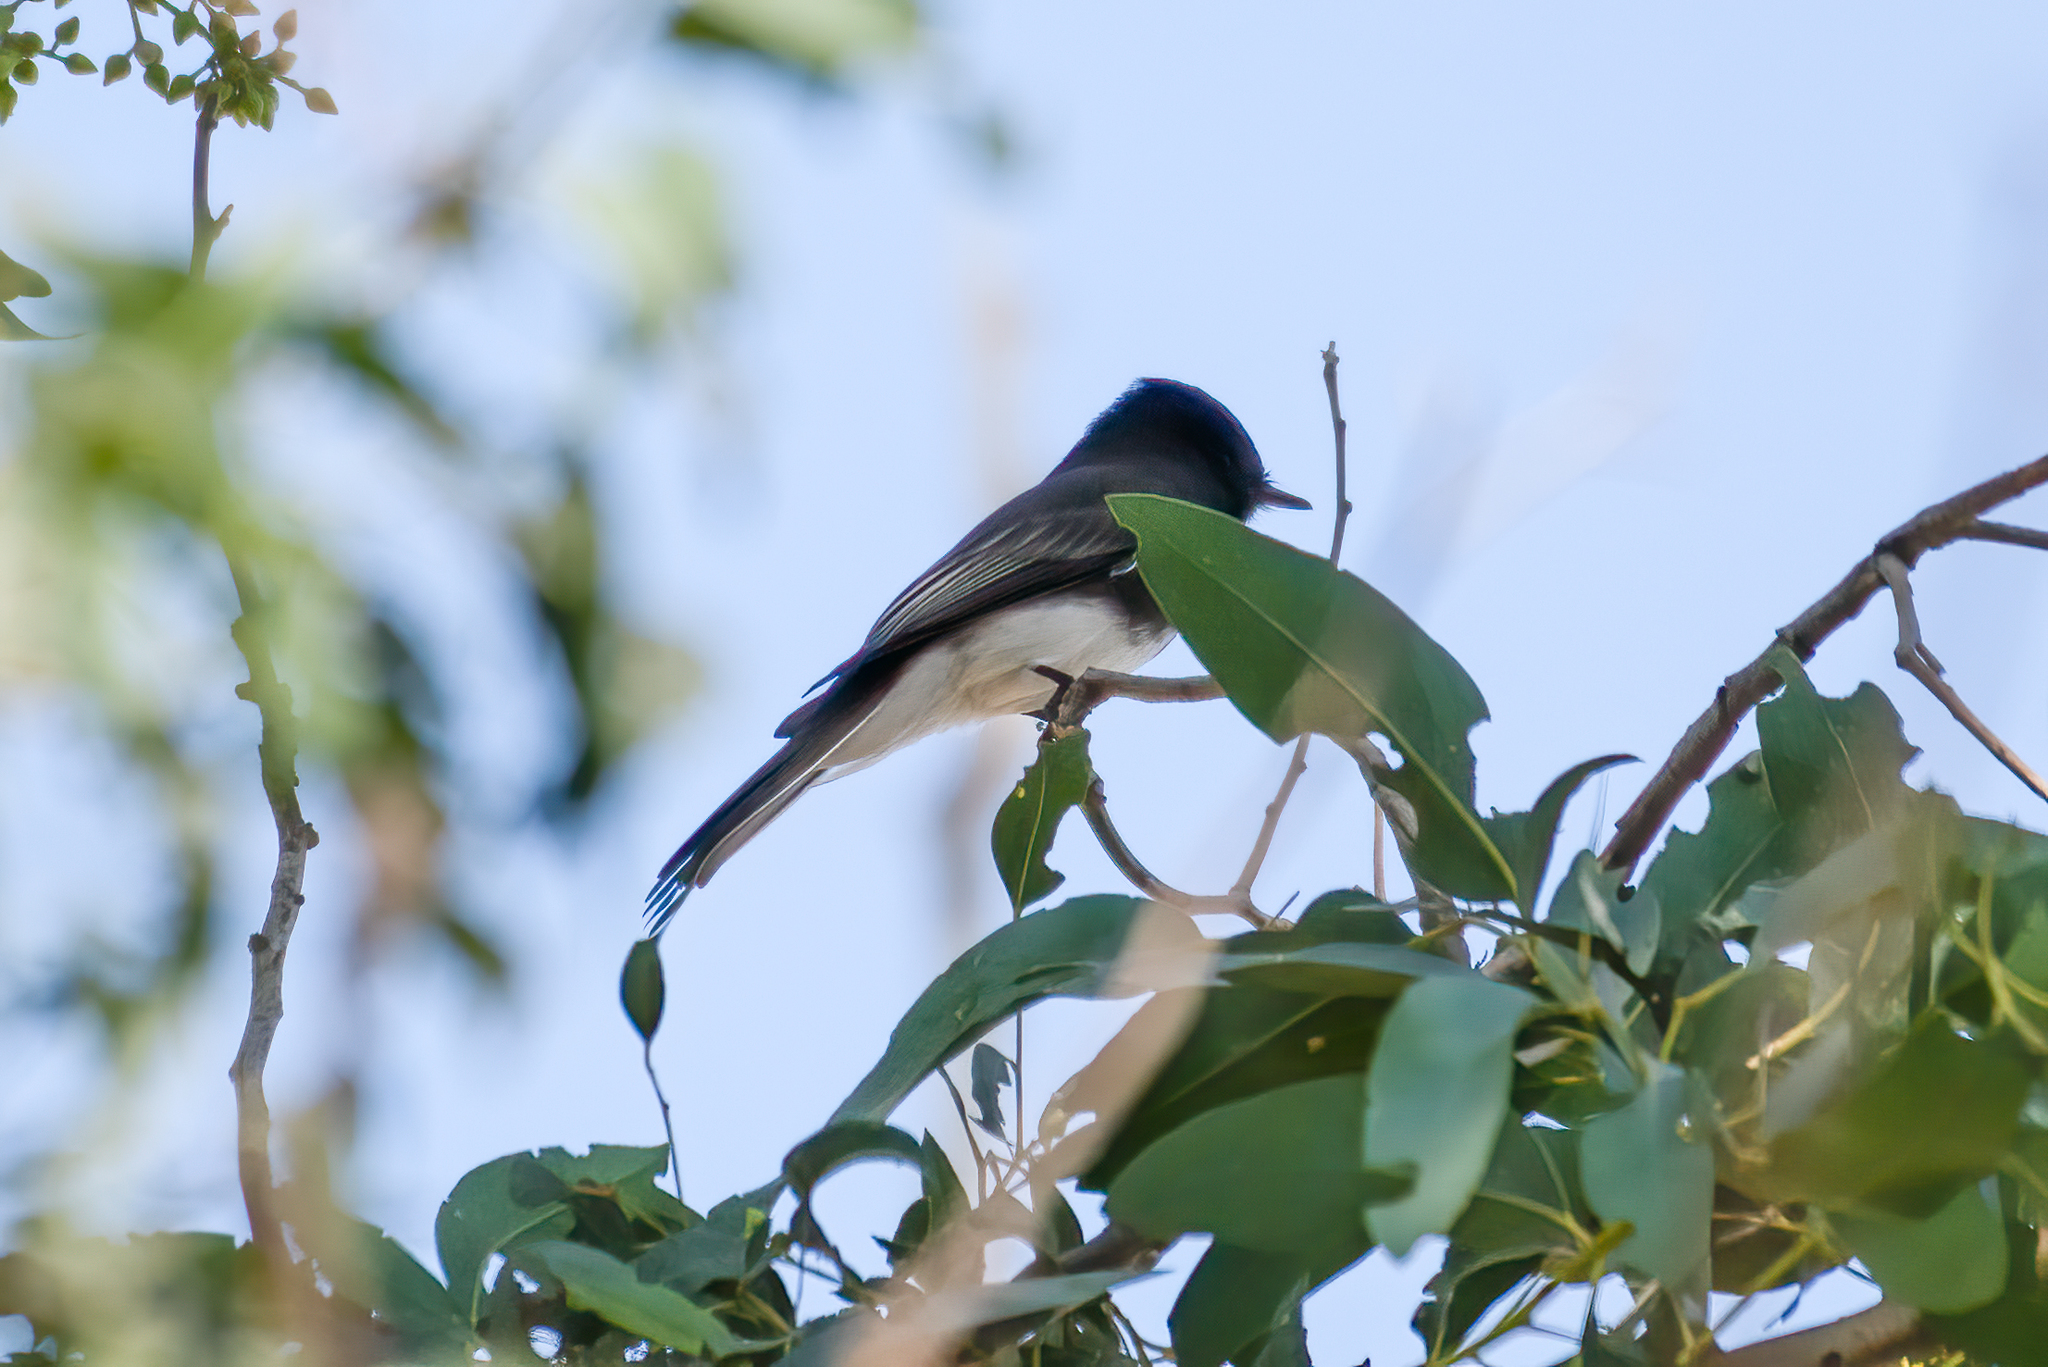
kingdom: Animalia
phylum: Chordata
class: Aves
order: Passeriformes
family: Tyrannidae
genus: Sayornis
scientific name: Sayornis nigricans
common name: Black phoebe
